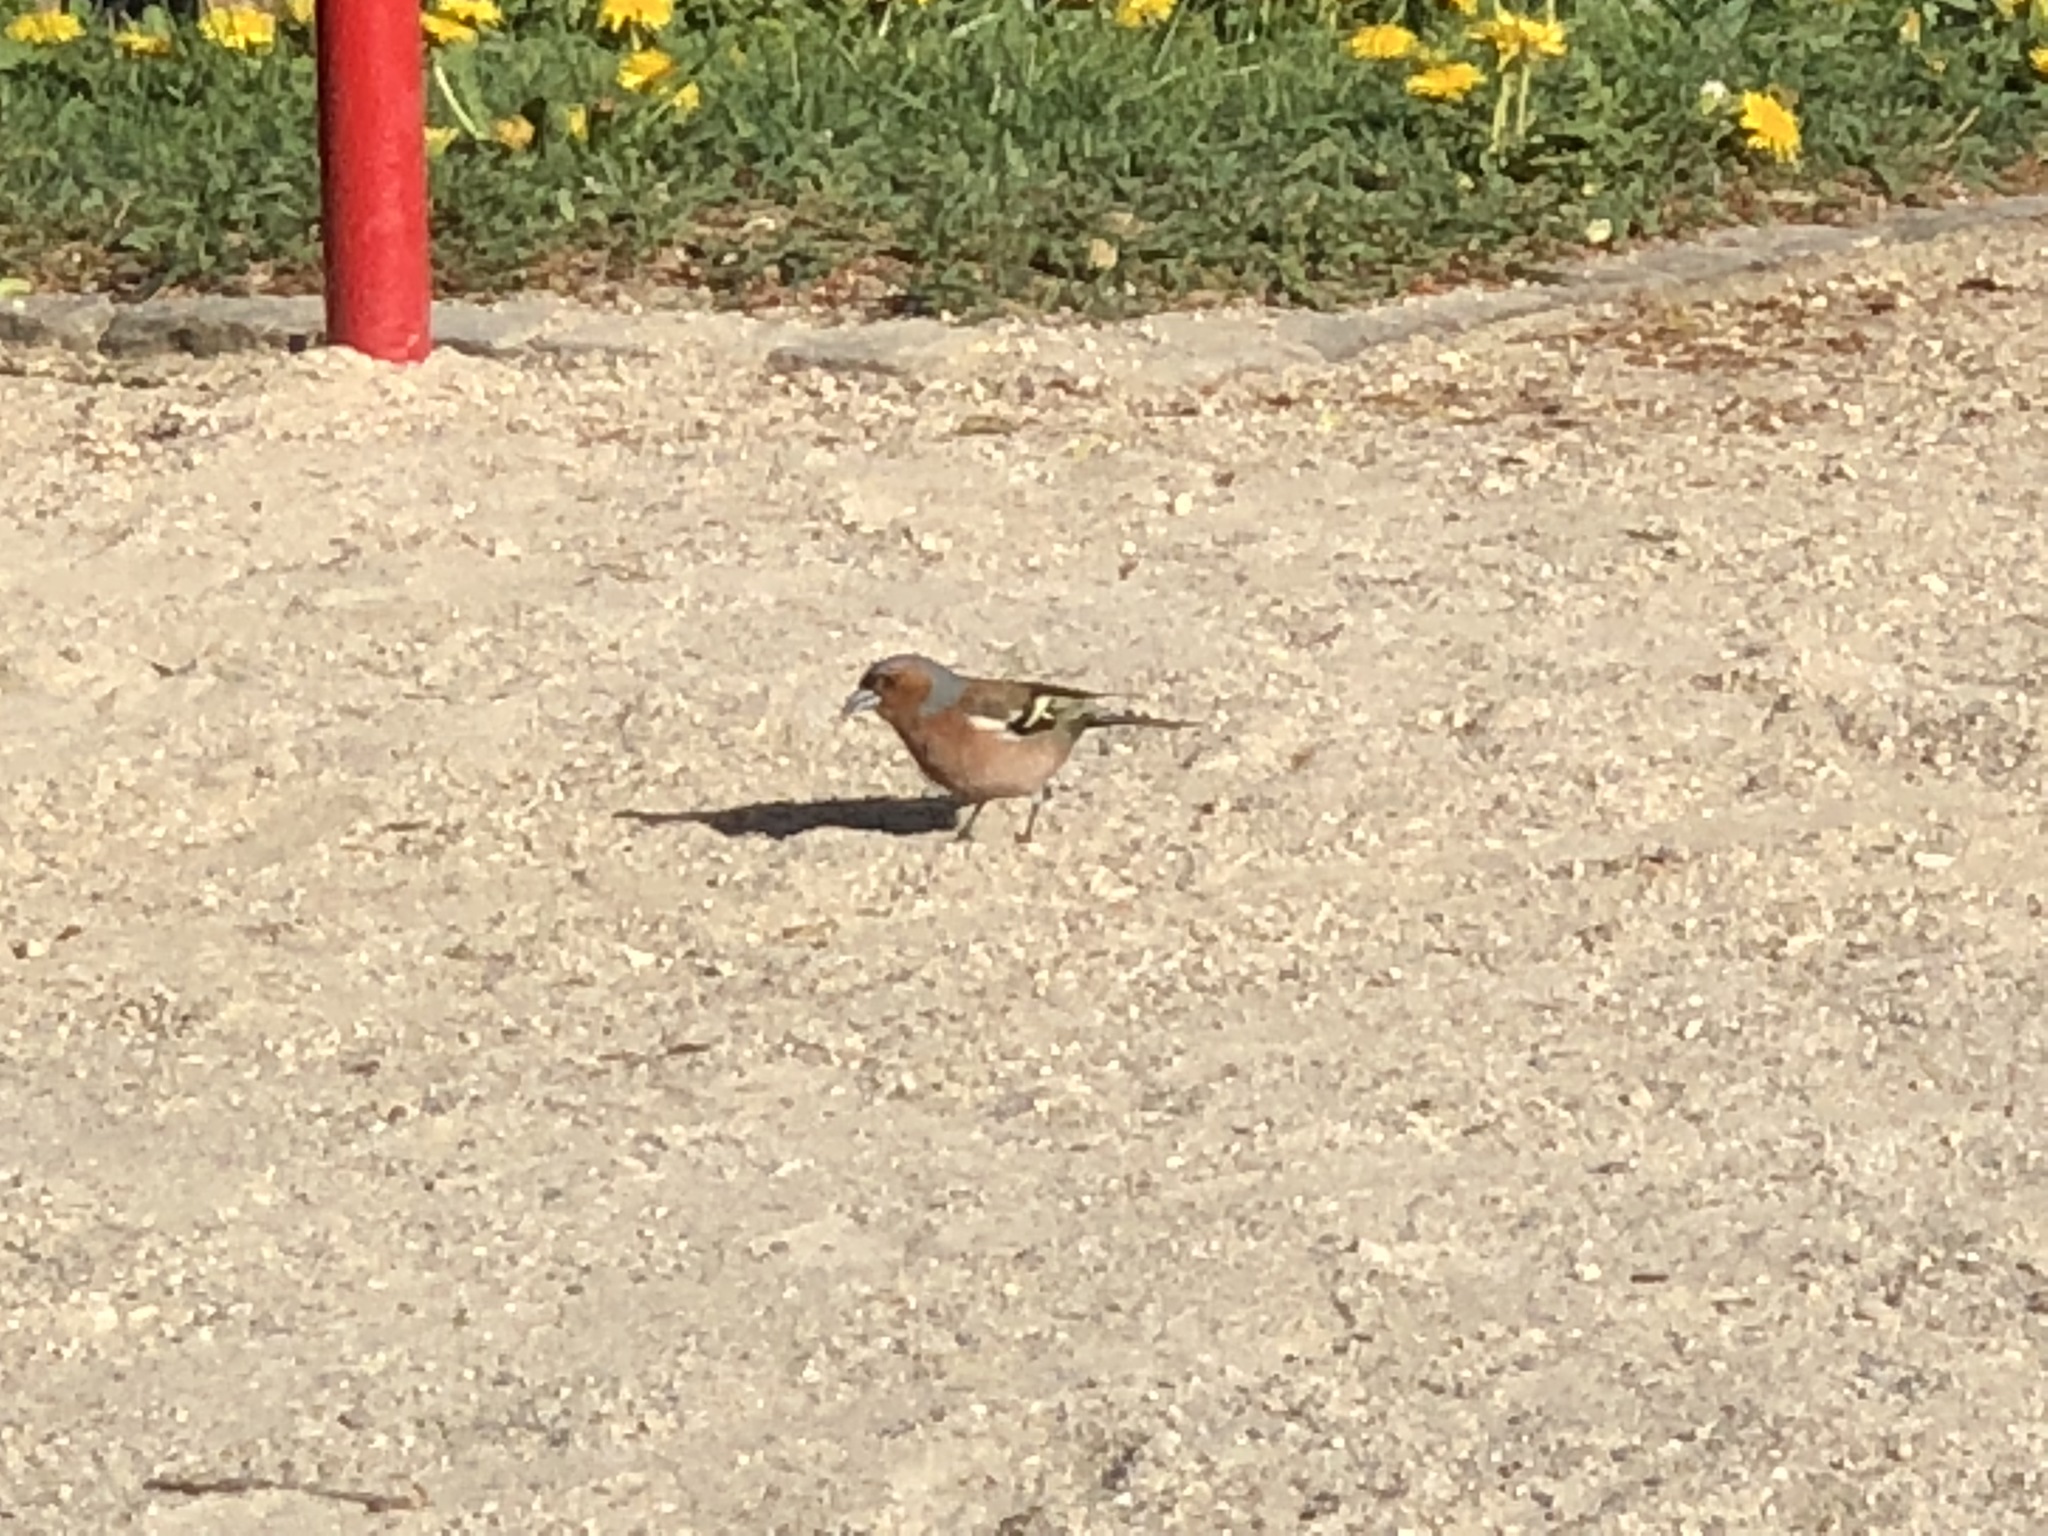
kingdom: Animalia
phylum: Chordata
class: Aves
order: Passeriformes
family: Fringillidae
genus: Fringilla
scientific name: Fringilla coelebs
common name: Common chaffinch
